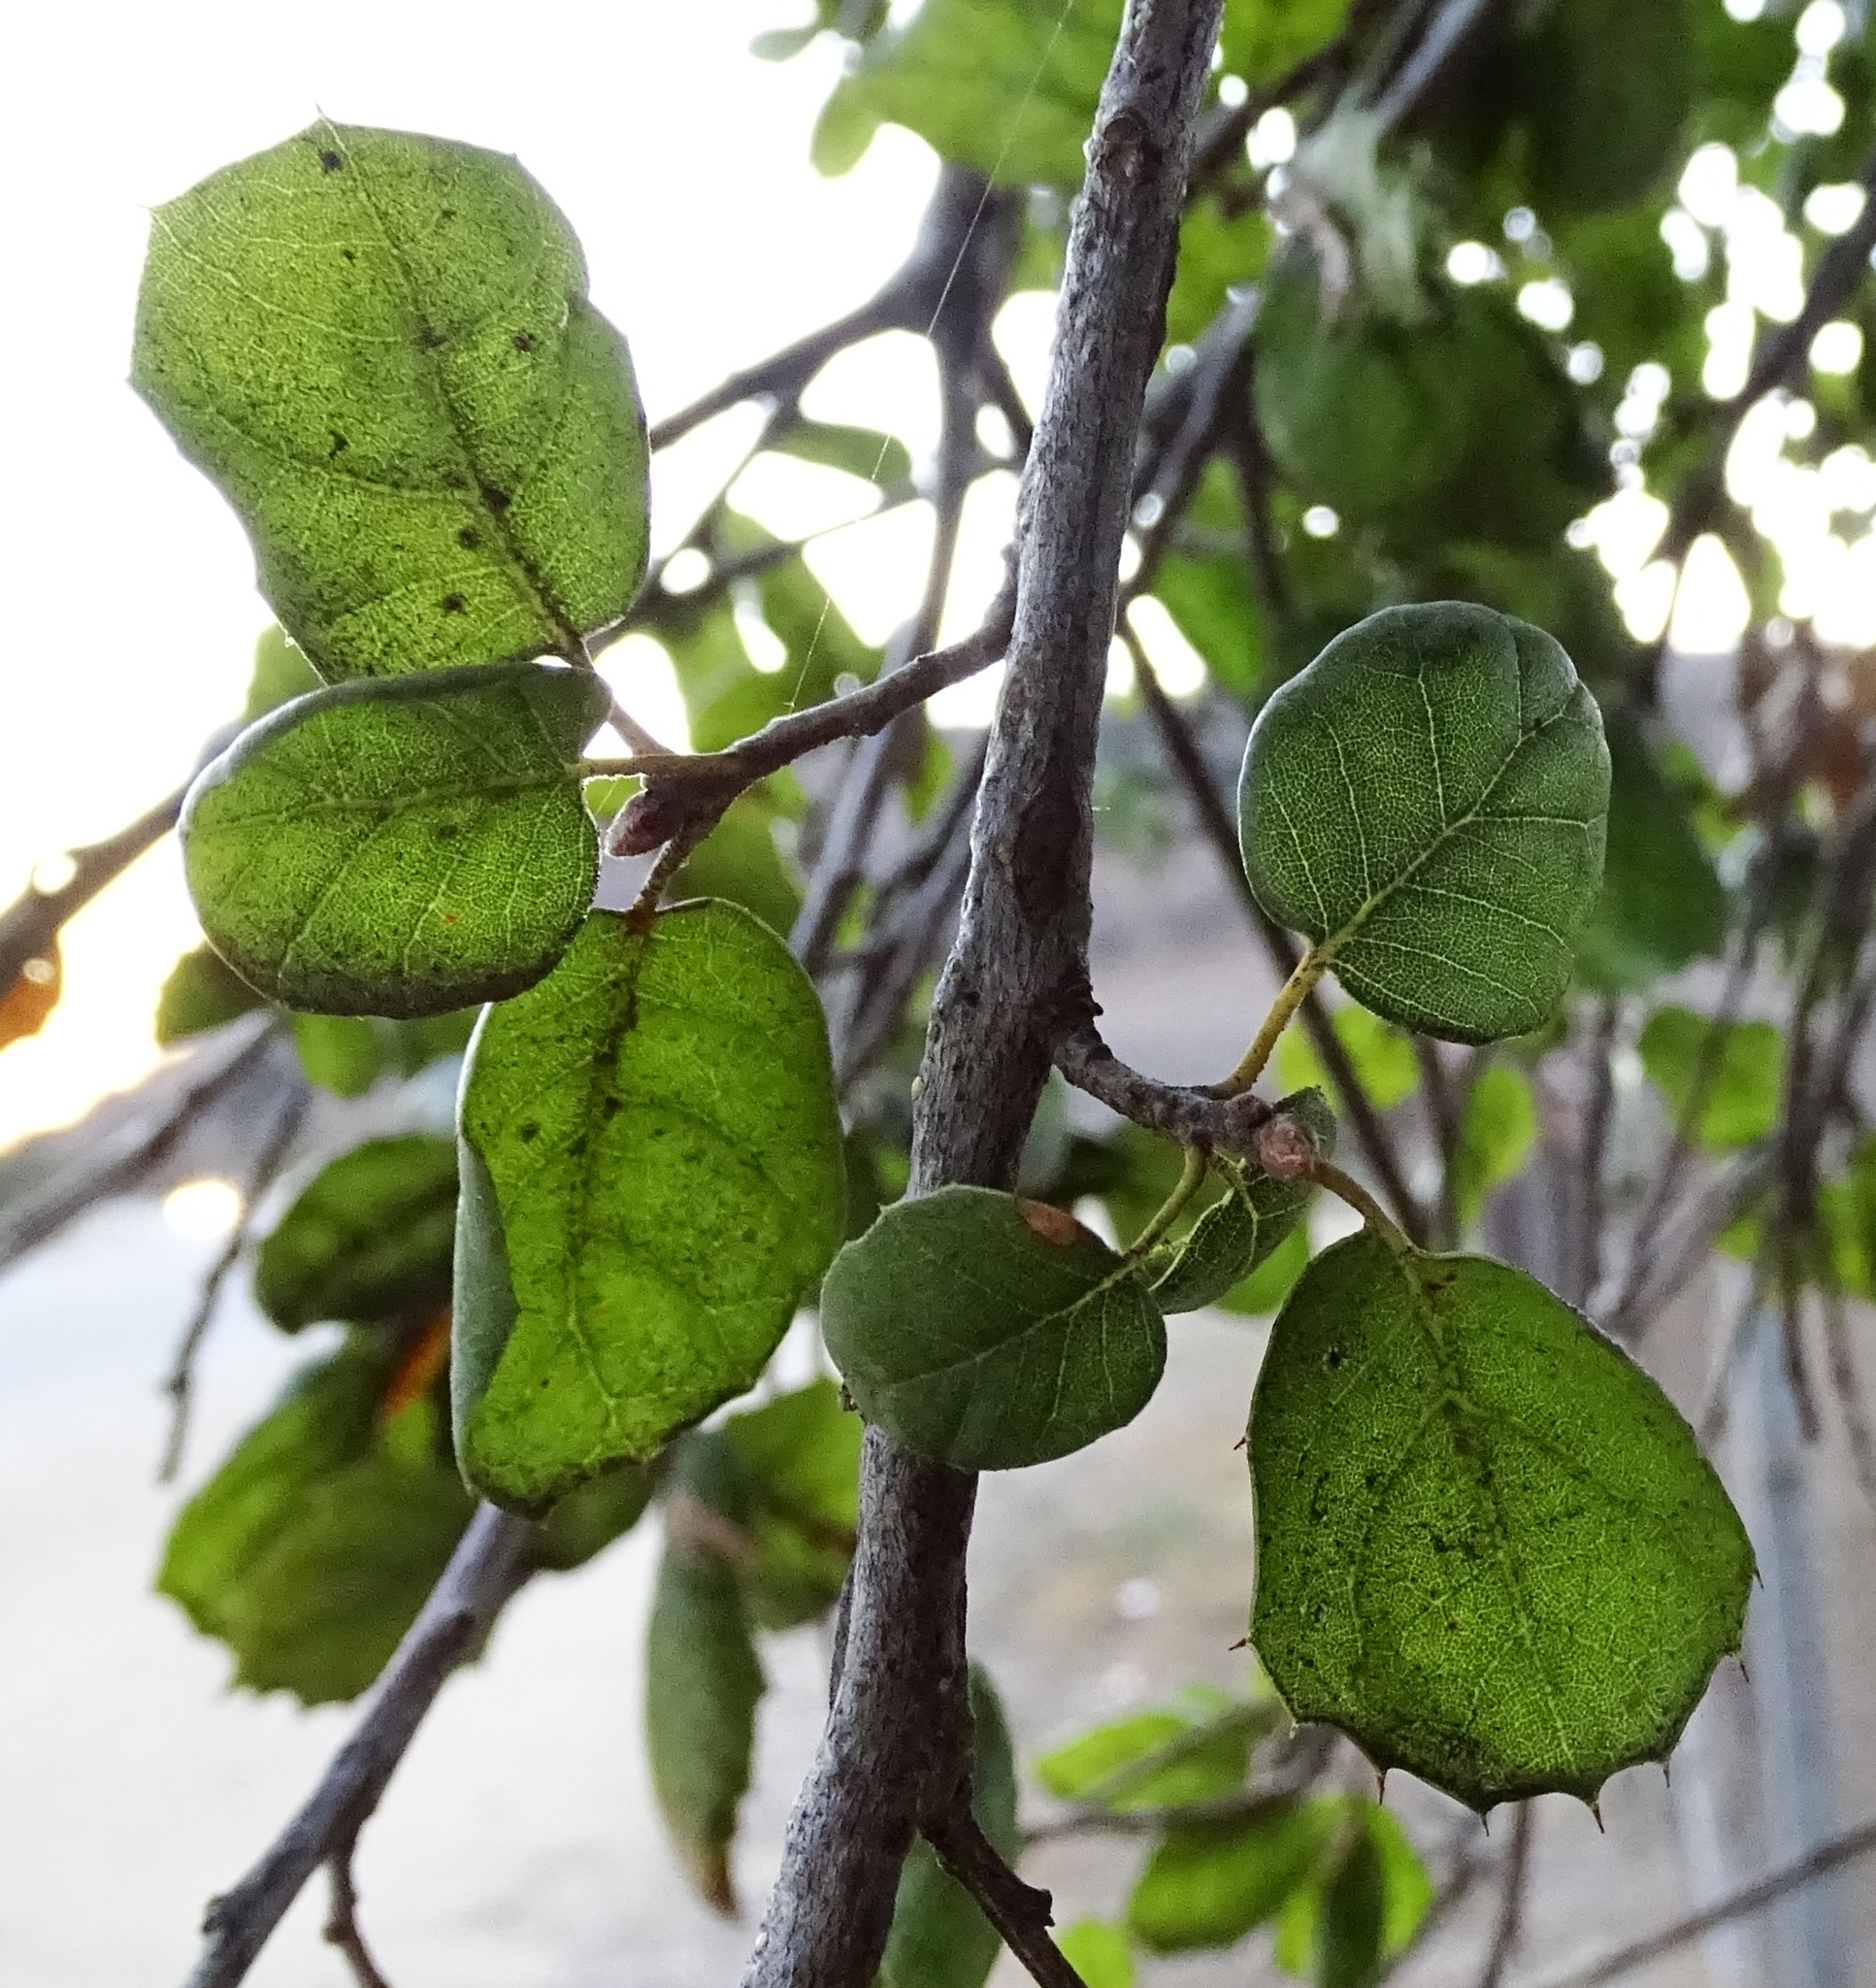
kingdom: Plantae
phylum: Tracheophyta
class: Magnoliopsida
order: Fagales
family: Fagaceae
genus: Quercus
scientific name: Quercus agrifolia
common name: California live oak
